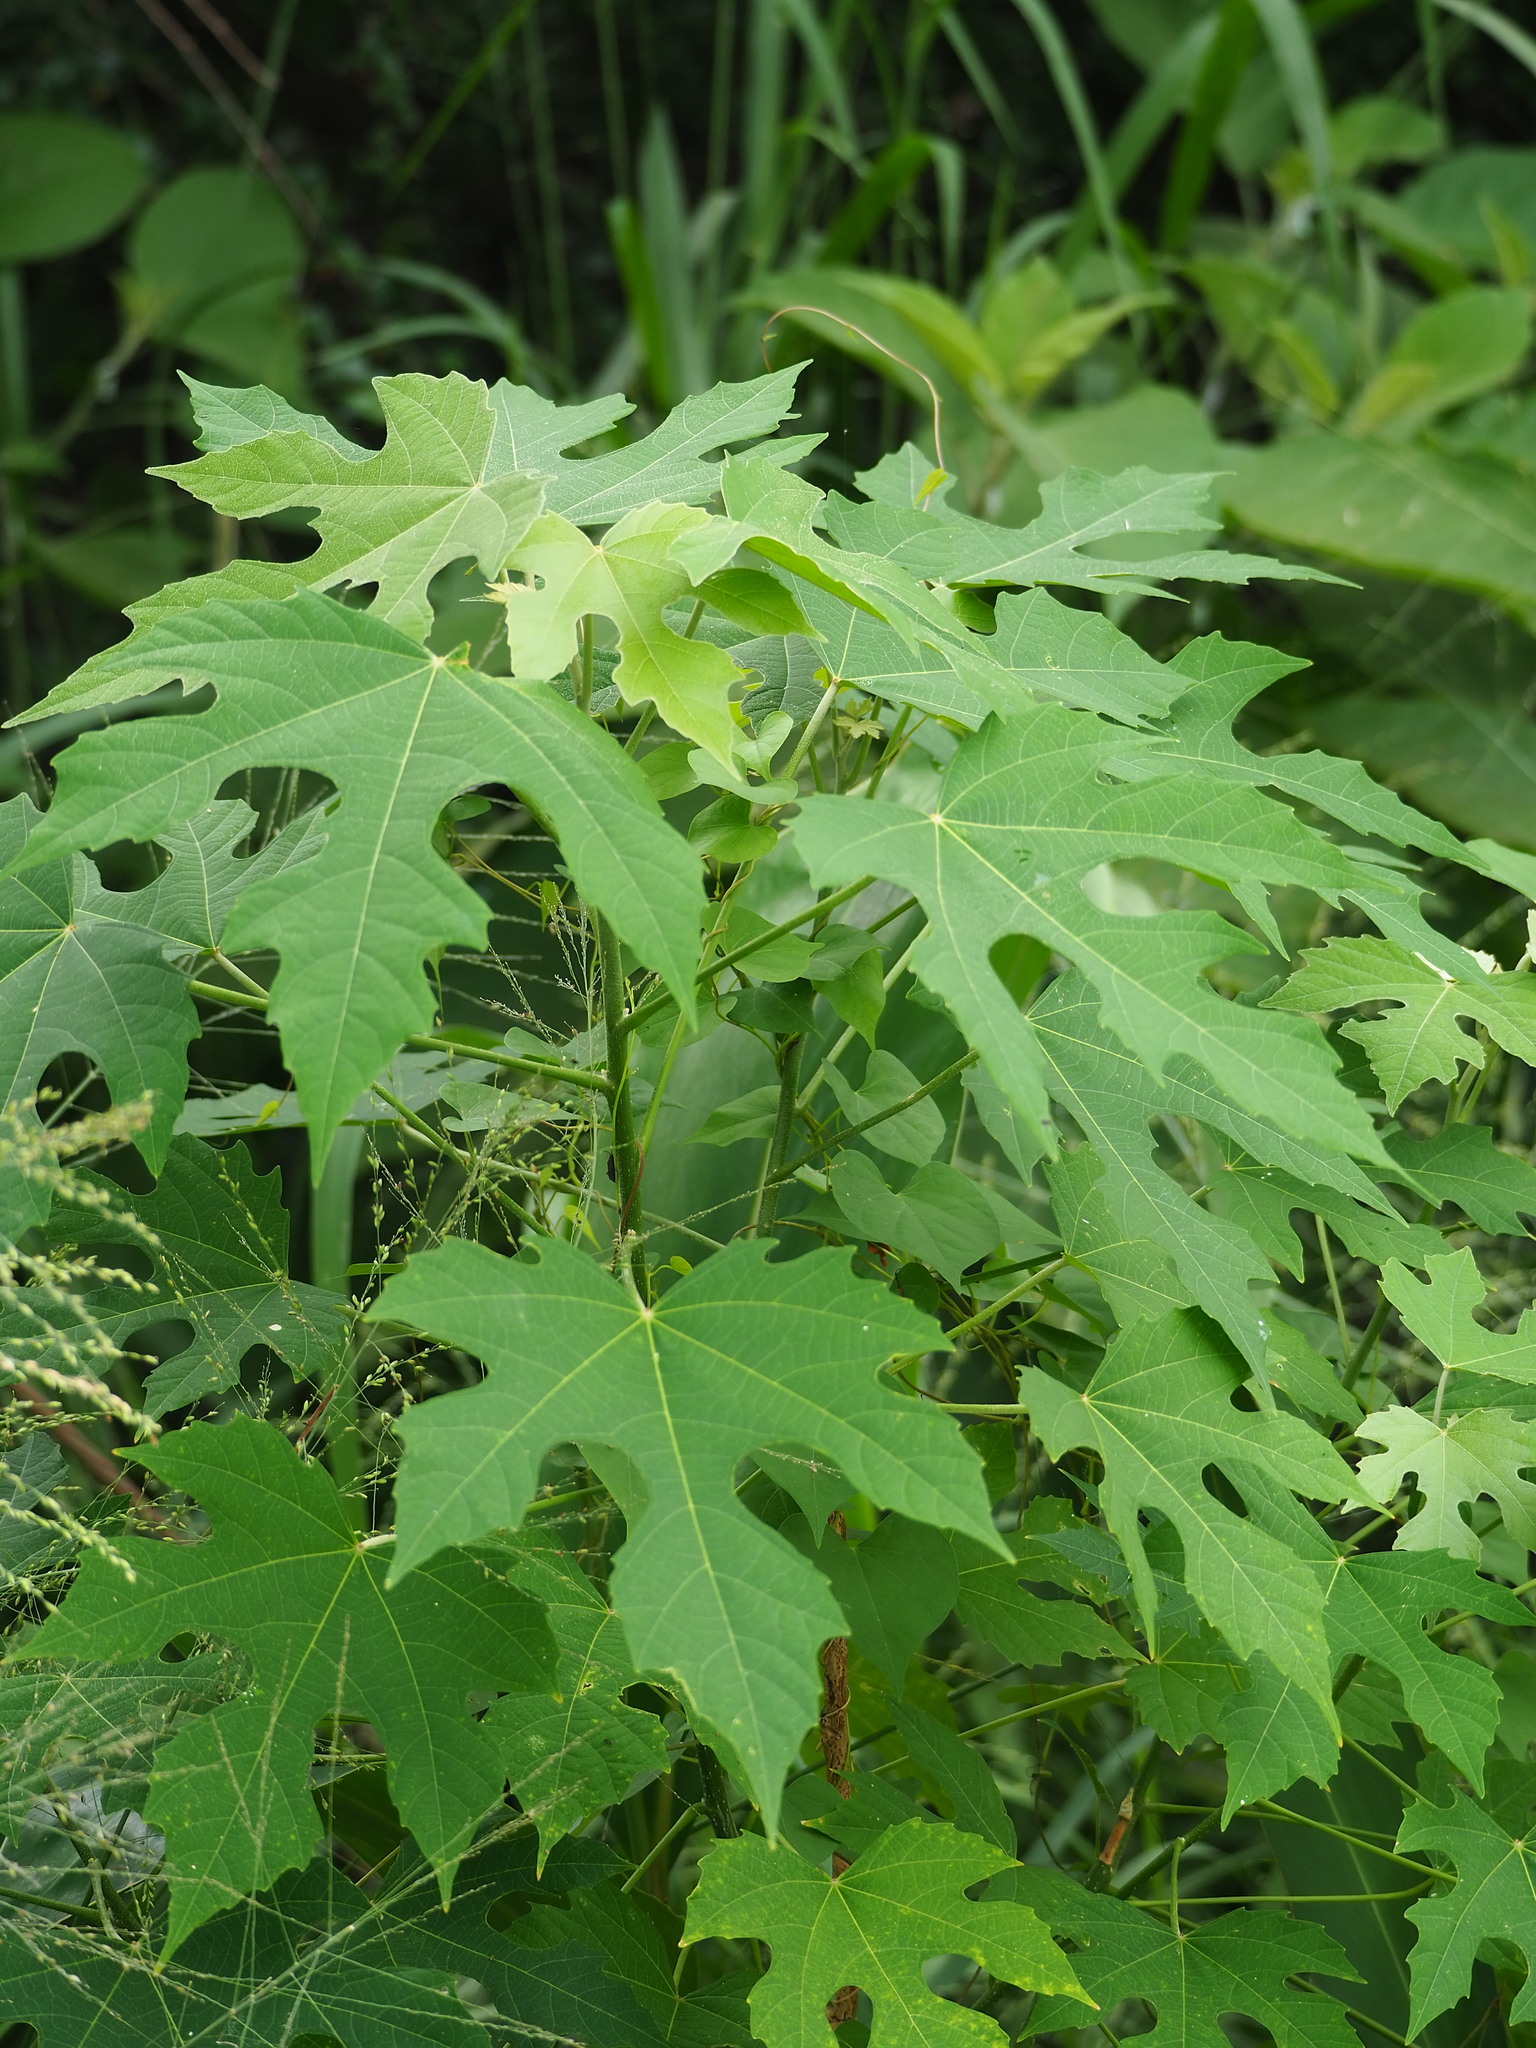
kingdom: Plantae
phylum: Tracheophyta
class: Magnoliopsida
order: Malpighiales
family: Euphorbiaceae
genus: Melanolepis
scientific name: Melanolepis multiglandulosa
